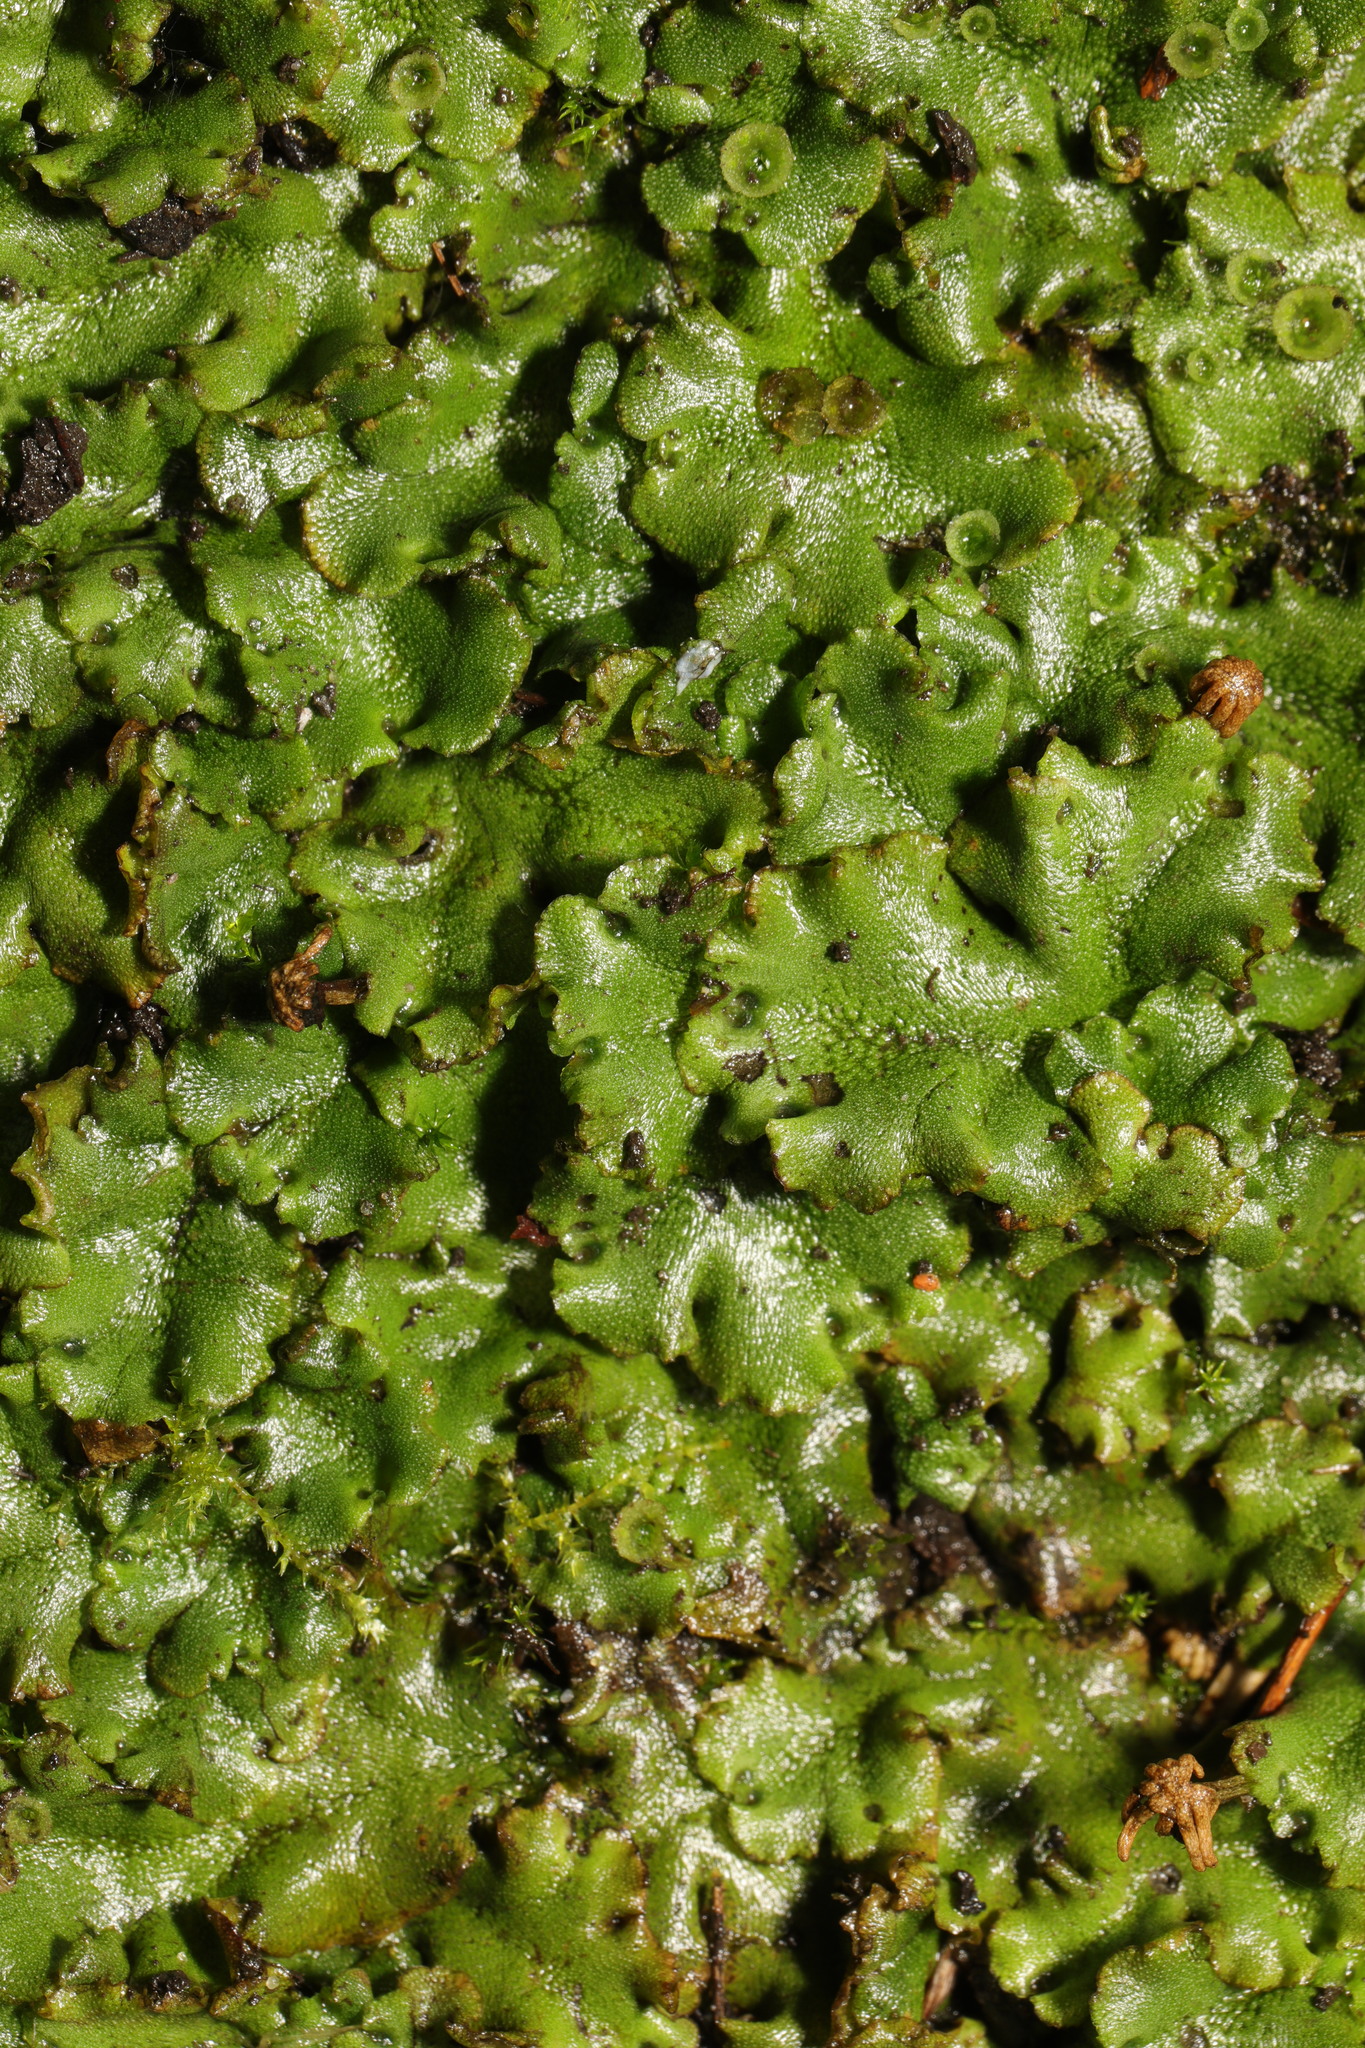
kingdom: Plantae
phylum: Marchantiophyta
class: Marchantiopsida
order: Marchantiales
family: Marchantiaceae
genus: Marchantia
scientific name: Marchantia polymorpha
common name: Common liverwort
